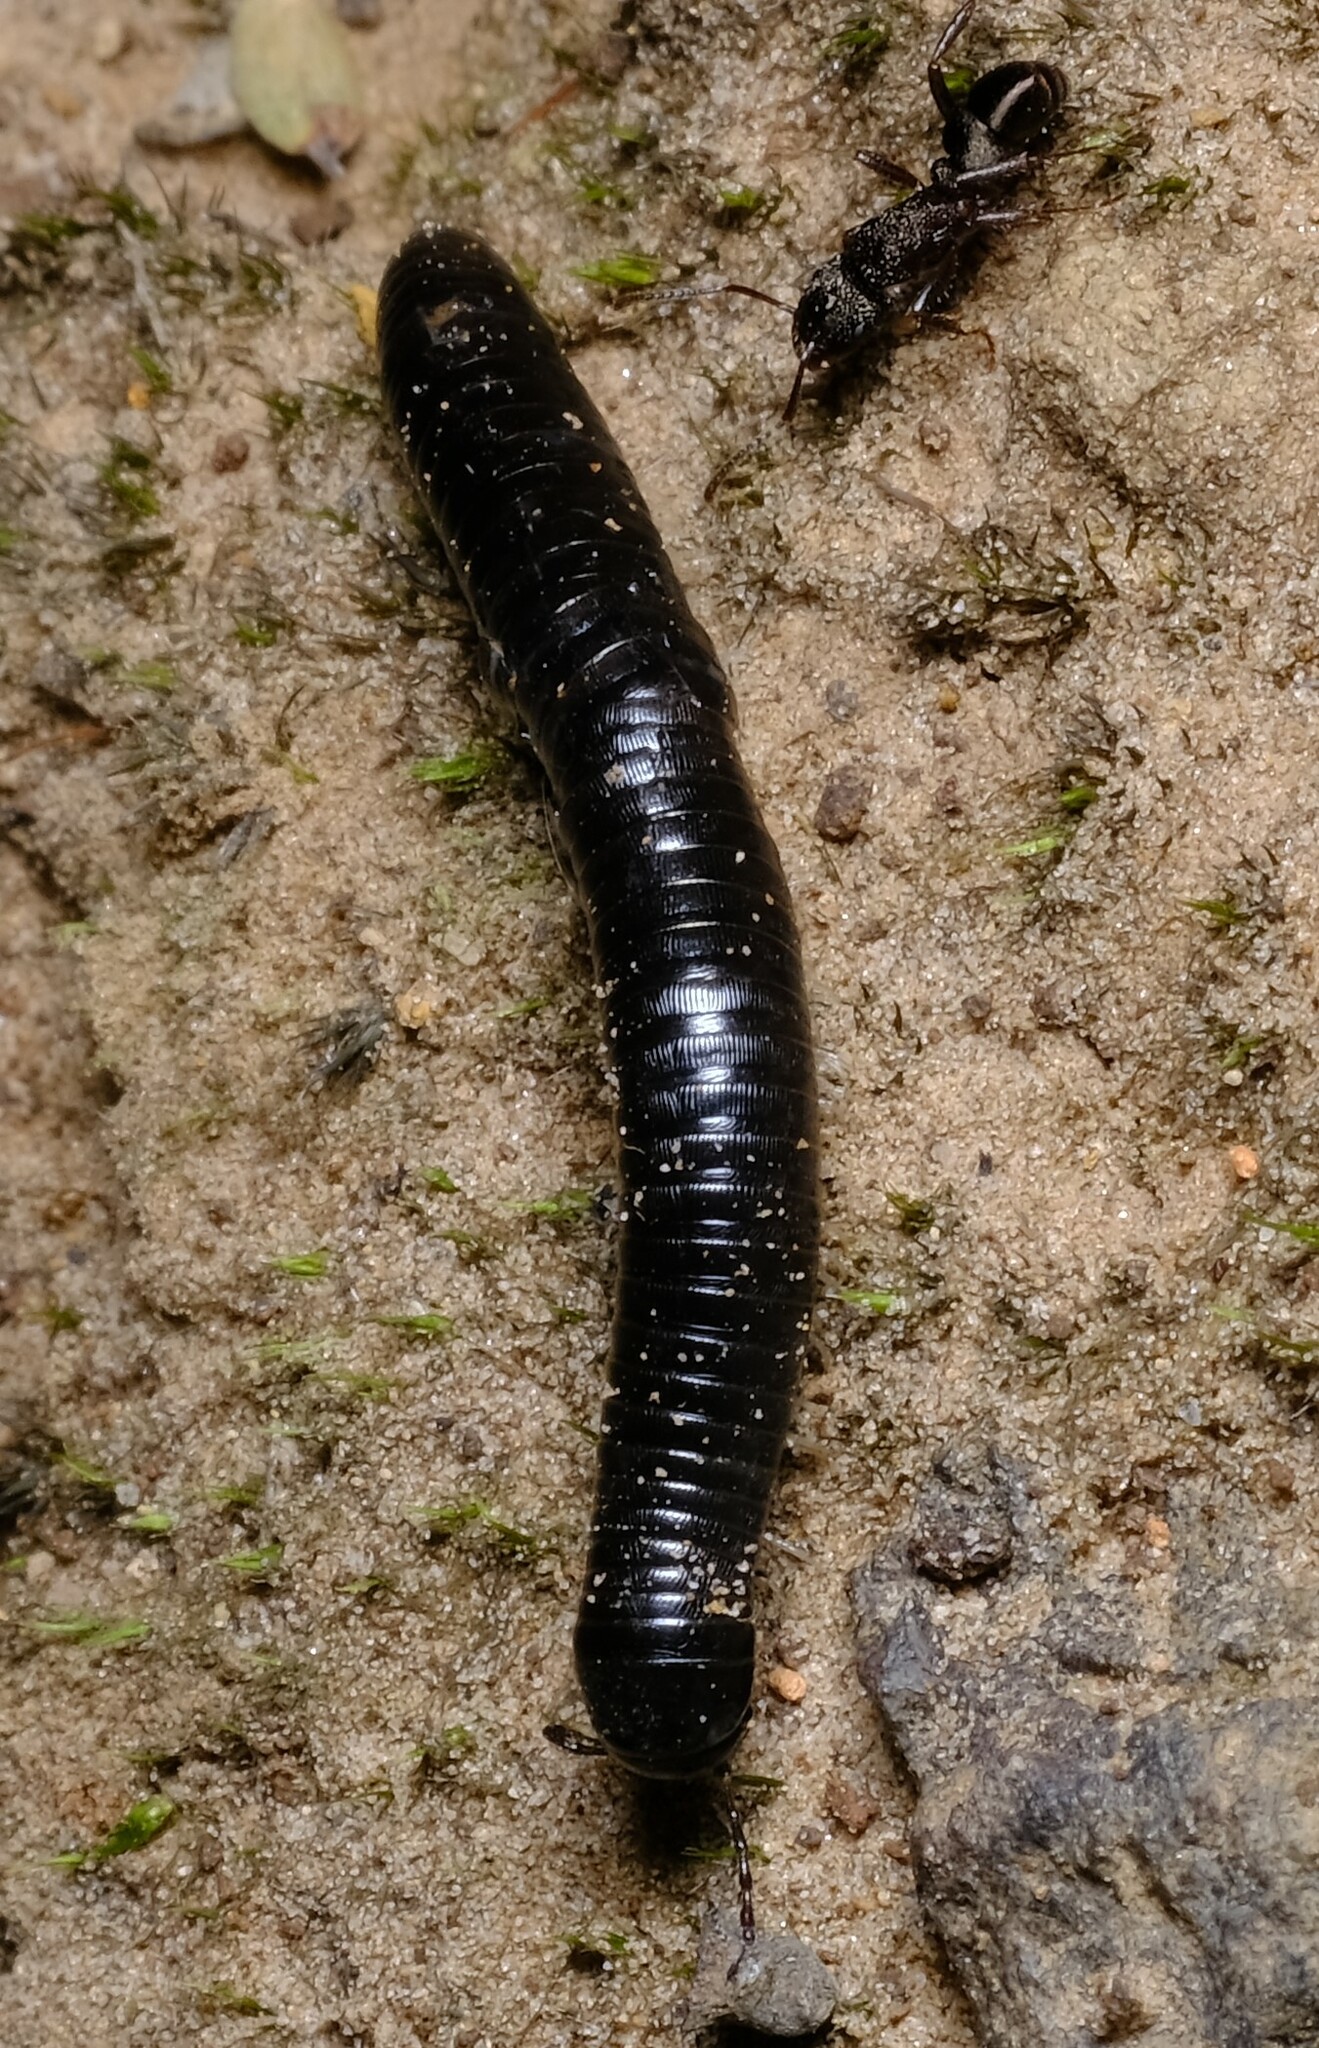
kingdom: Animalia
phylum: Arthropoda
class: Diplopoda
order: Julida
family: Julidae
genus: Ommatoiulus
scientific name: Ommatoiulus moreleti
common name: Portuguese millipede
